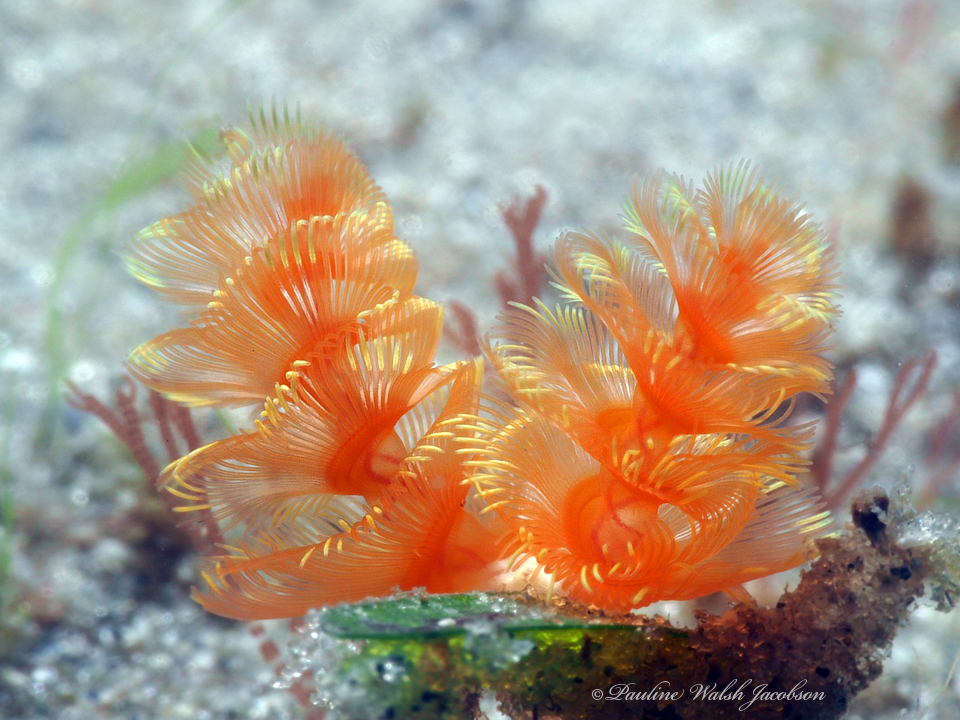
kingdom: Animalia
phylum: Phoronida
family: Phoronidae
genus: Phoronopsis
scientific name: Phoronopsis californica
